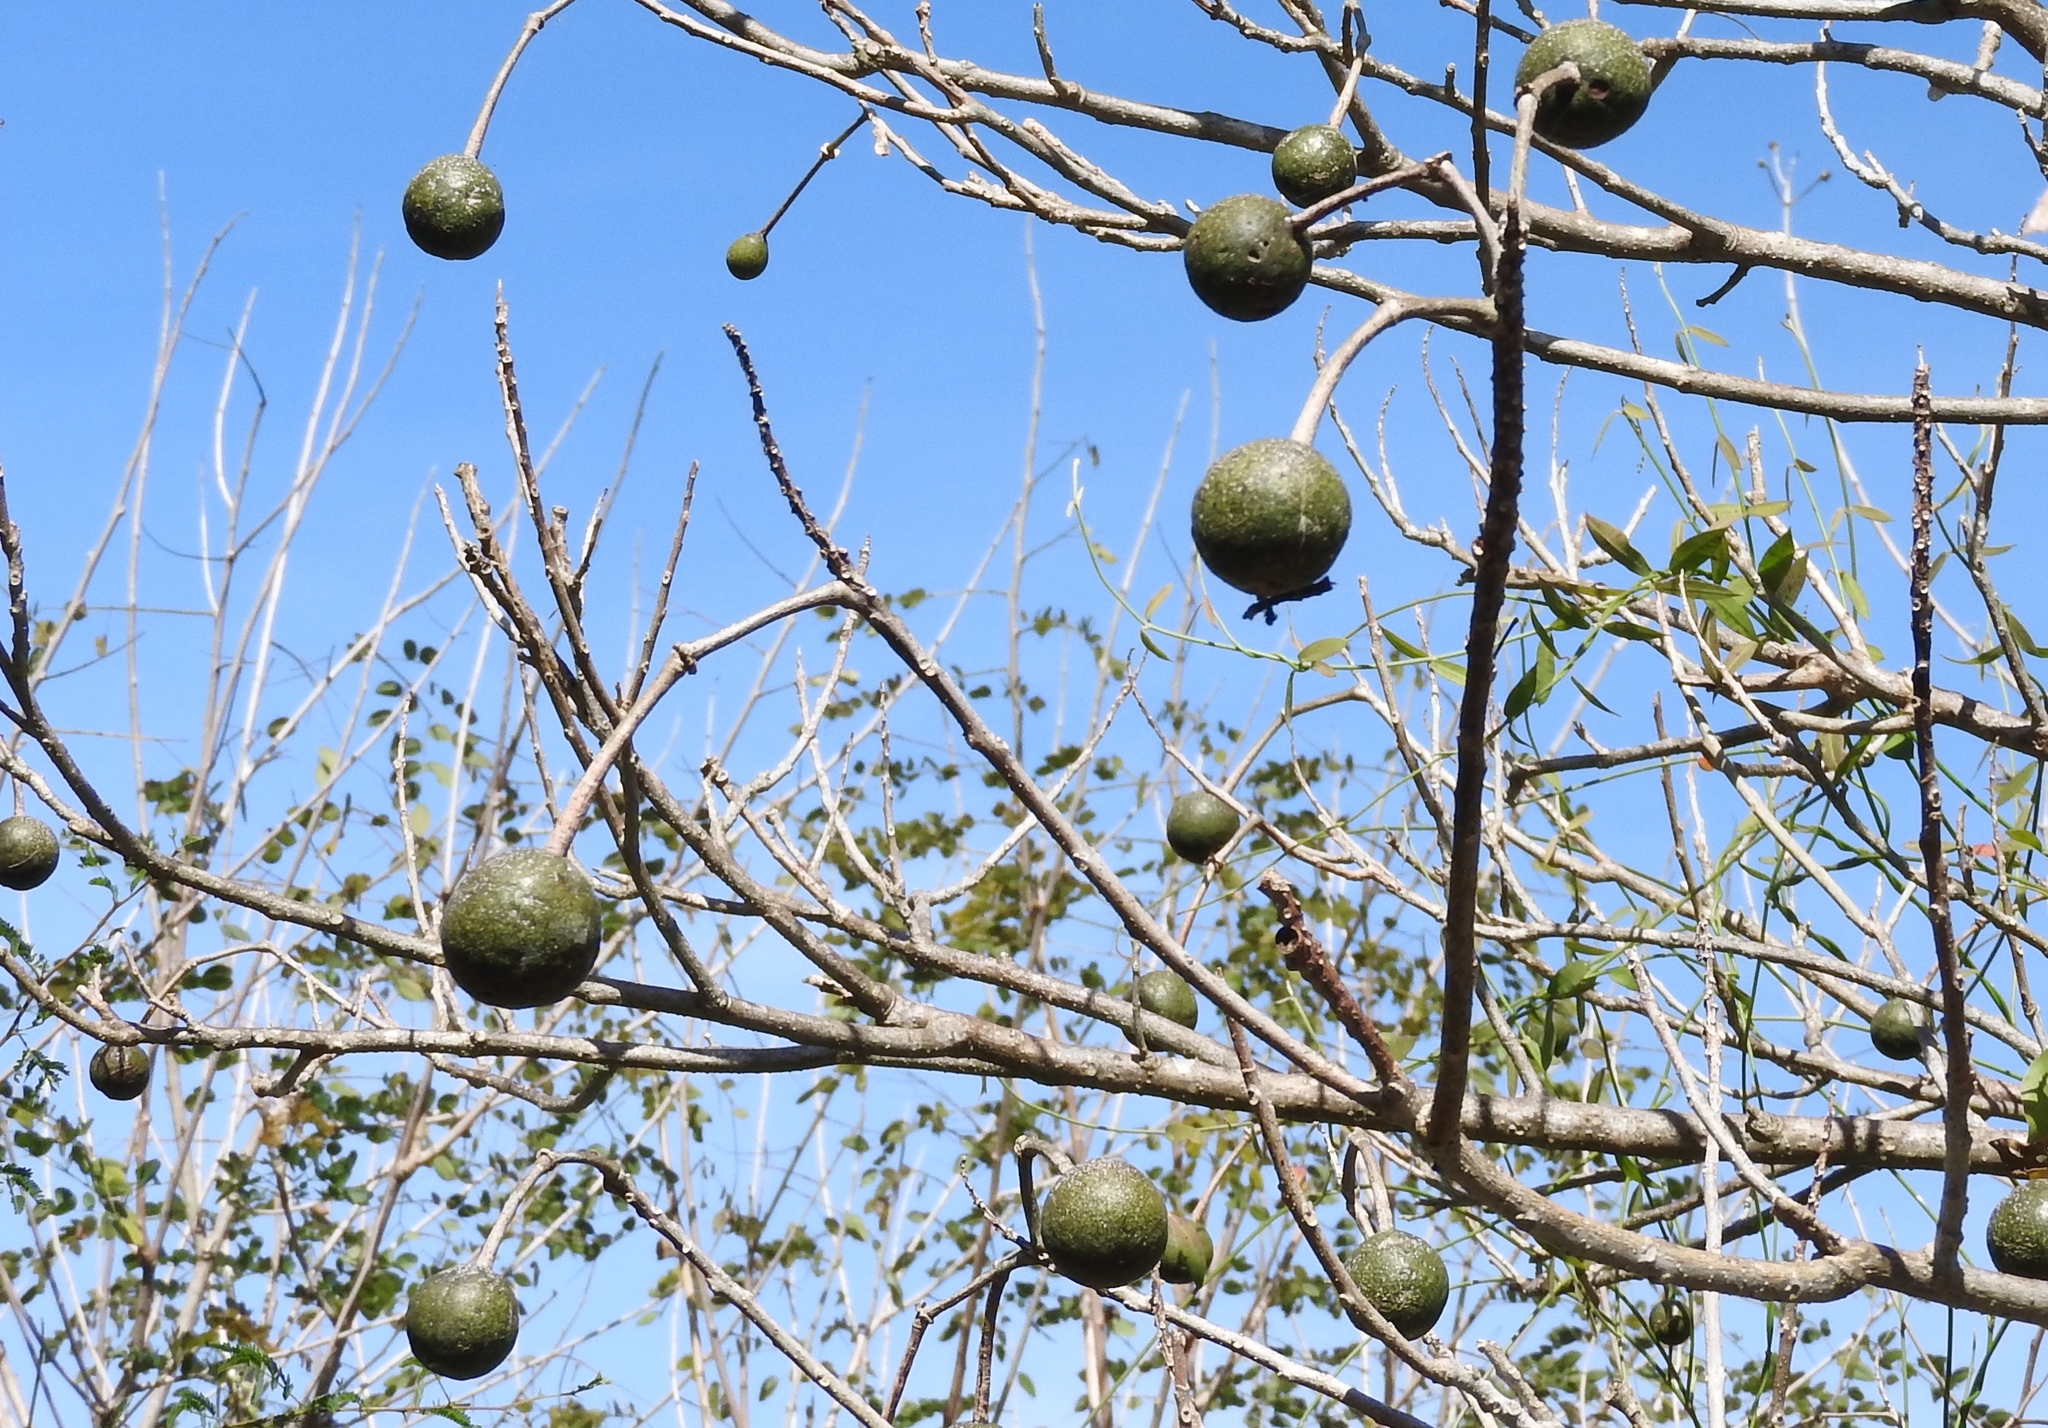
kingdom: Plantae
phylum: Tracheophyta
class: Magnoliopsida
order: Brassicales
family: Capparaceae
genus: Crateva
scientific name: Crateva tapia
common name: Garlic-pear
